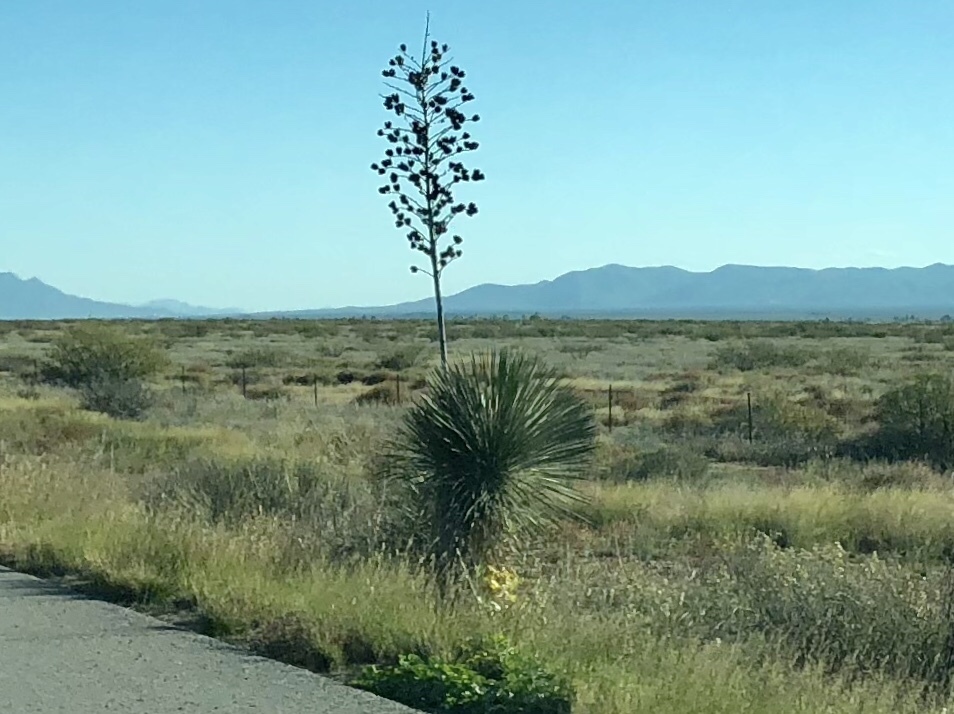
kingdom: Plantae
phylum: Tracheophyta
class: Liliopsida
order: Asparagales
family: Asparagaceae
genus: Yucca
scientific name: Yucca elata
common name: Palmella
